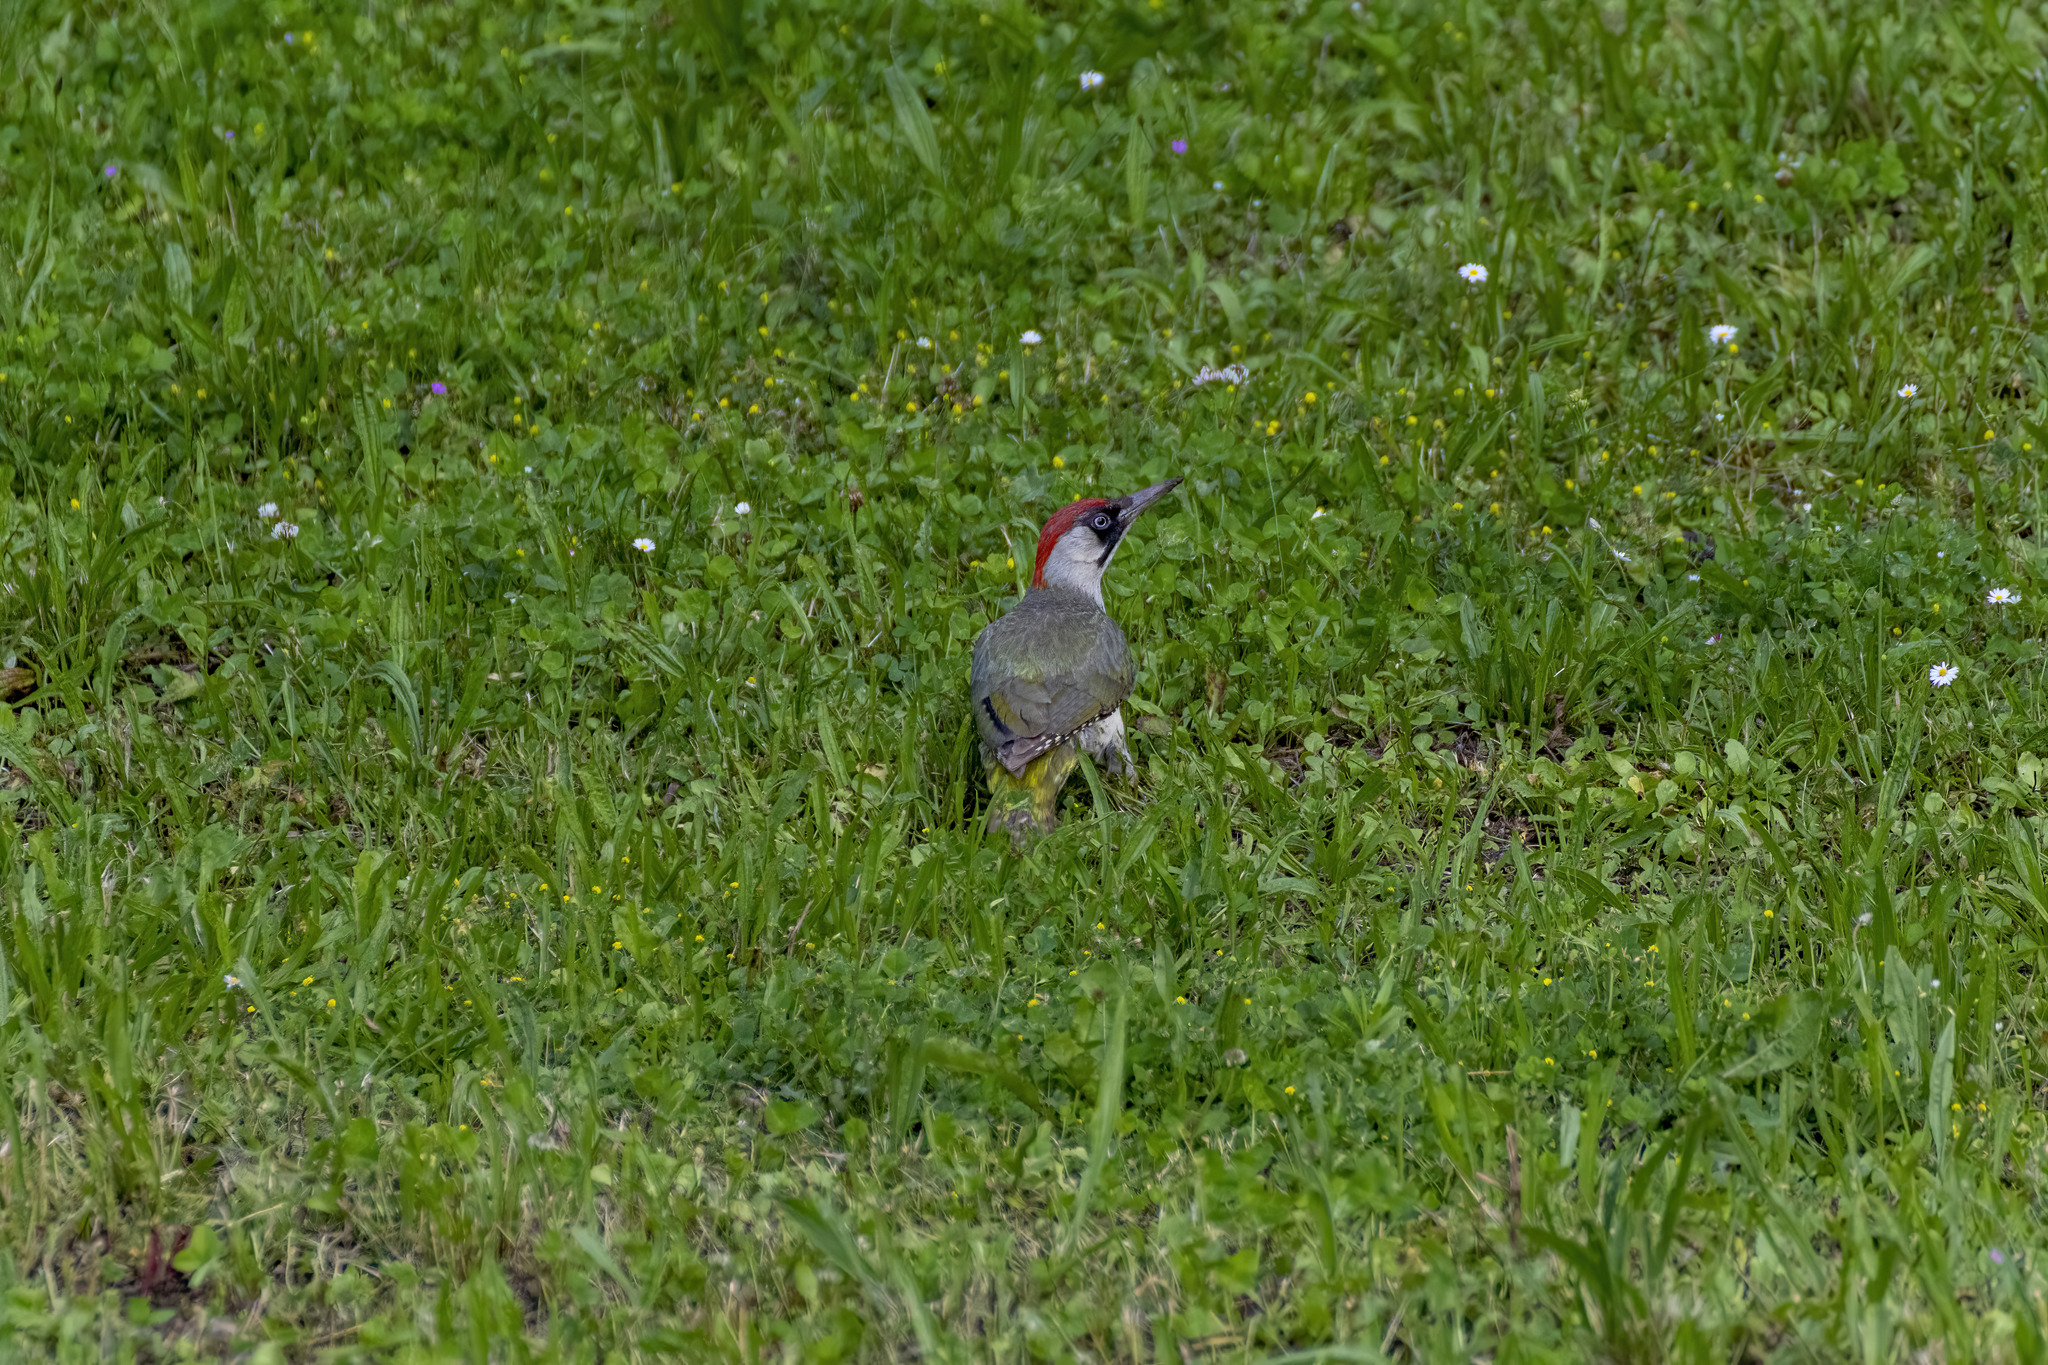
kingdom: Animalia
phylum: Chordata
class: Aves
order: Piciformes
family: Picidae
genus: Picus
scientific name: Picus viridis
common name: European green woodpecker
